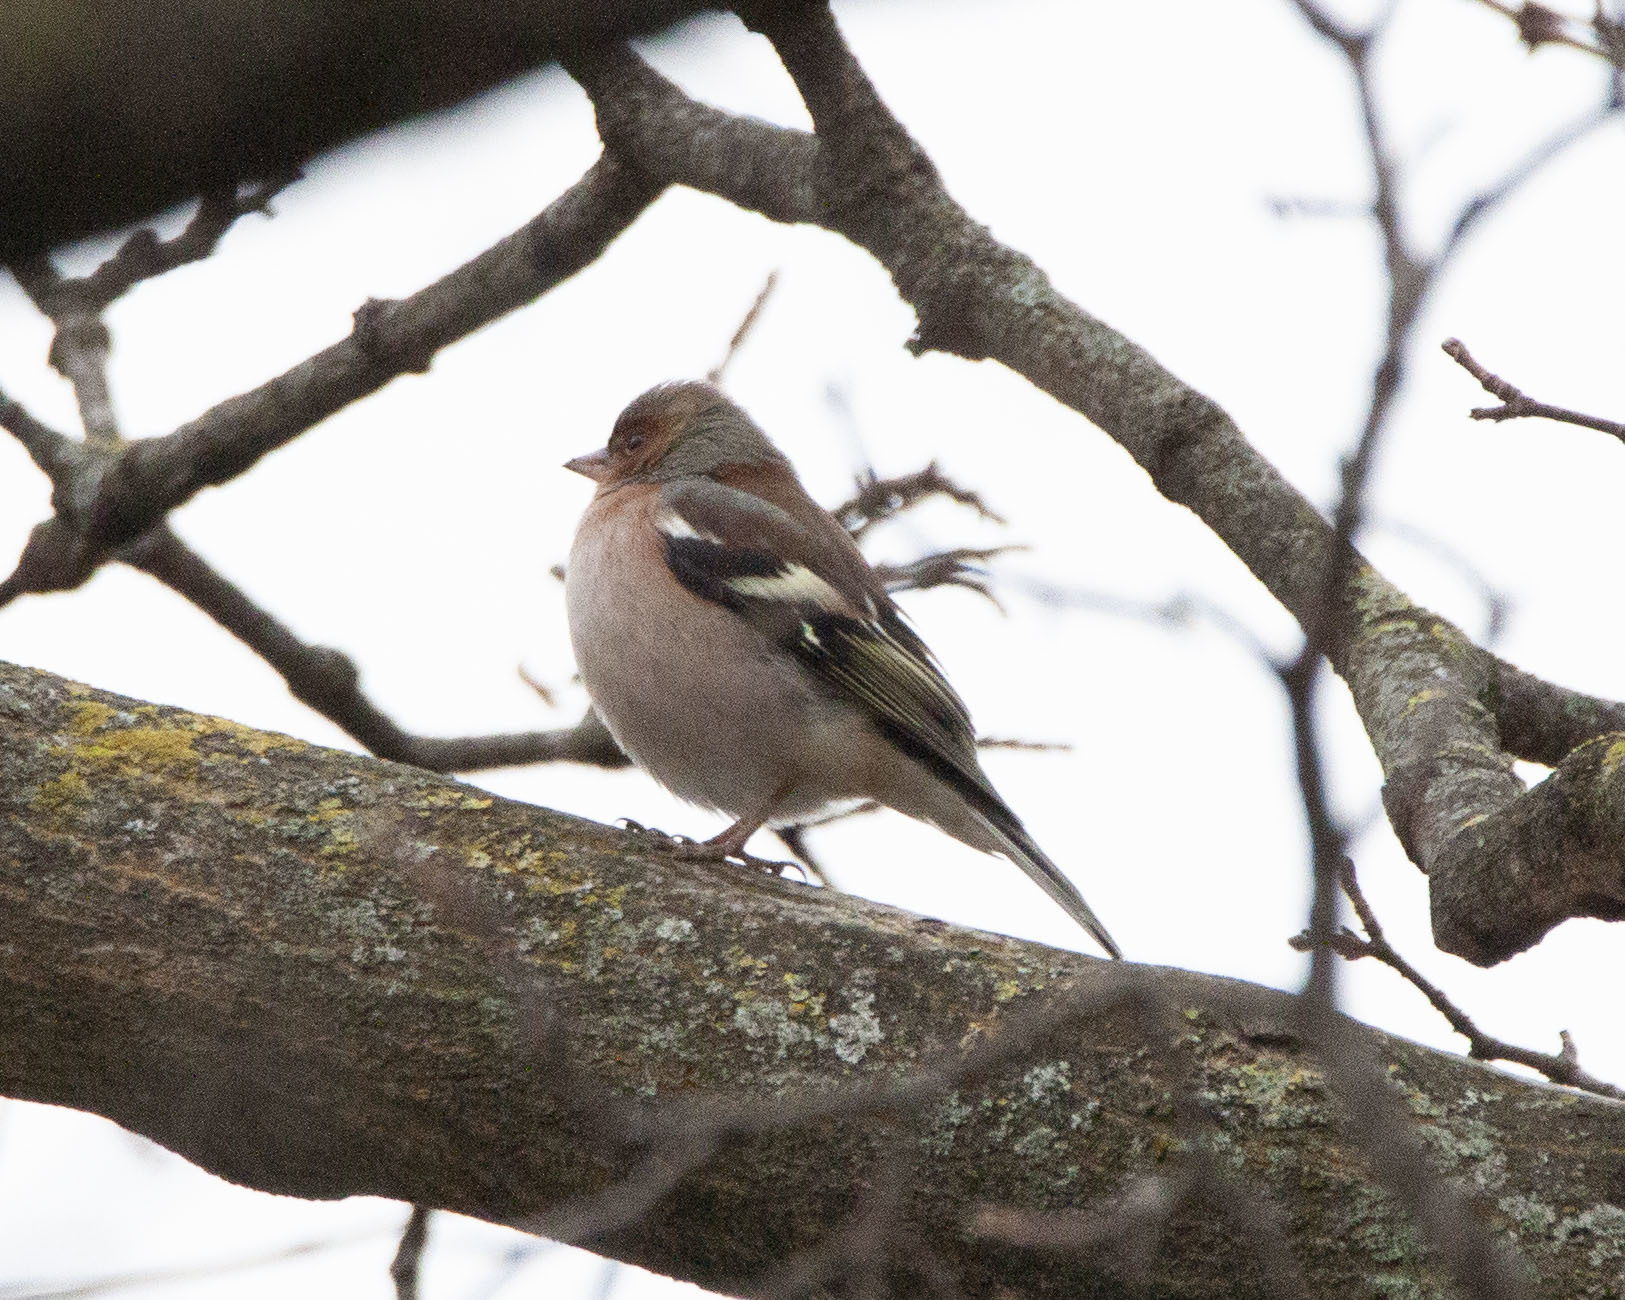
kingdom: Animalia
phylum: Chordata
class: Aves
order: Passeriformes
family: Fringillidae
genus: Fringilla
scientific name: Fringilla coelebs
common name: Common chaffinch
